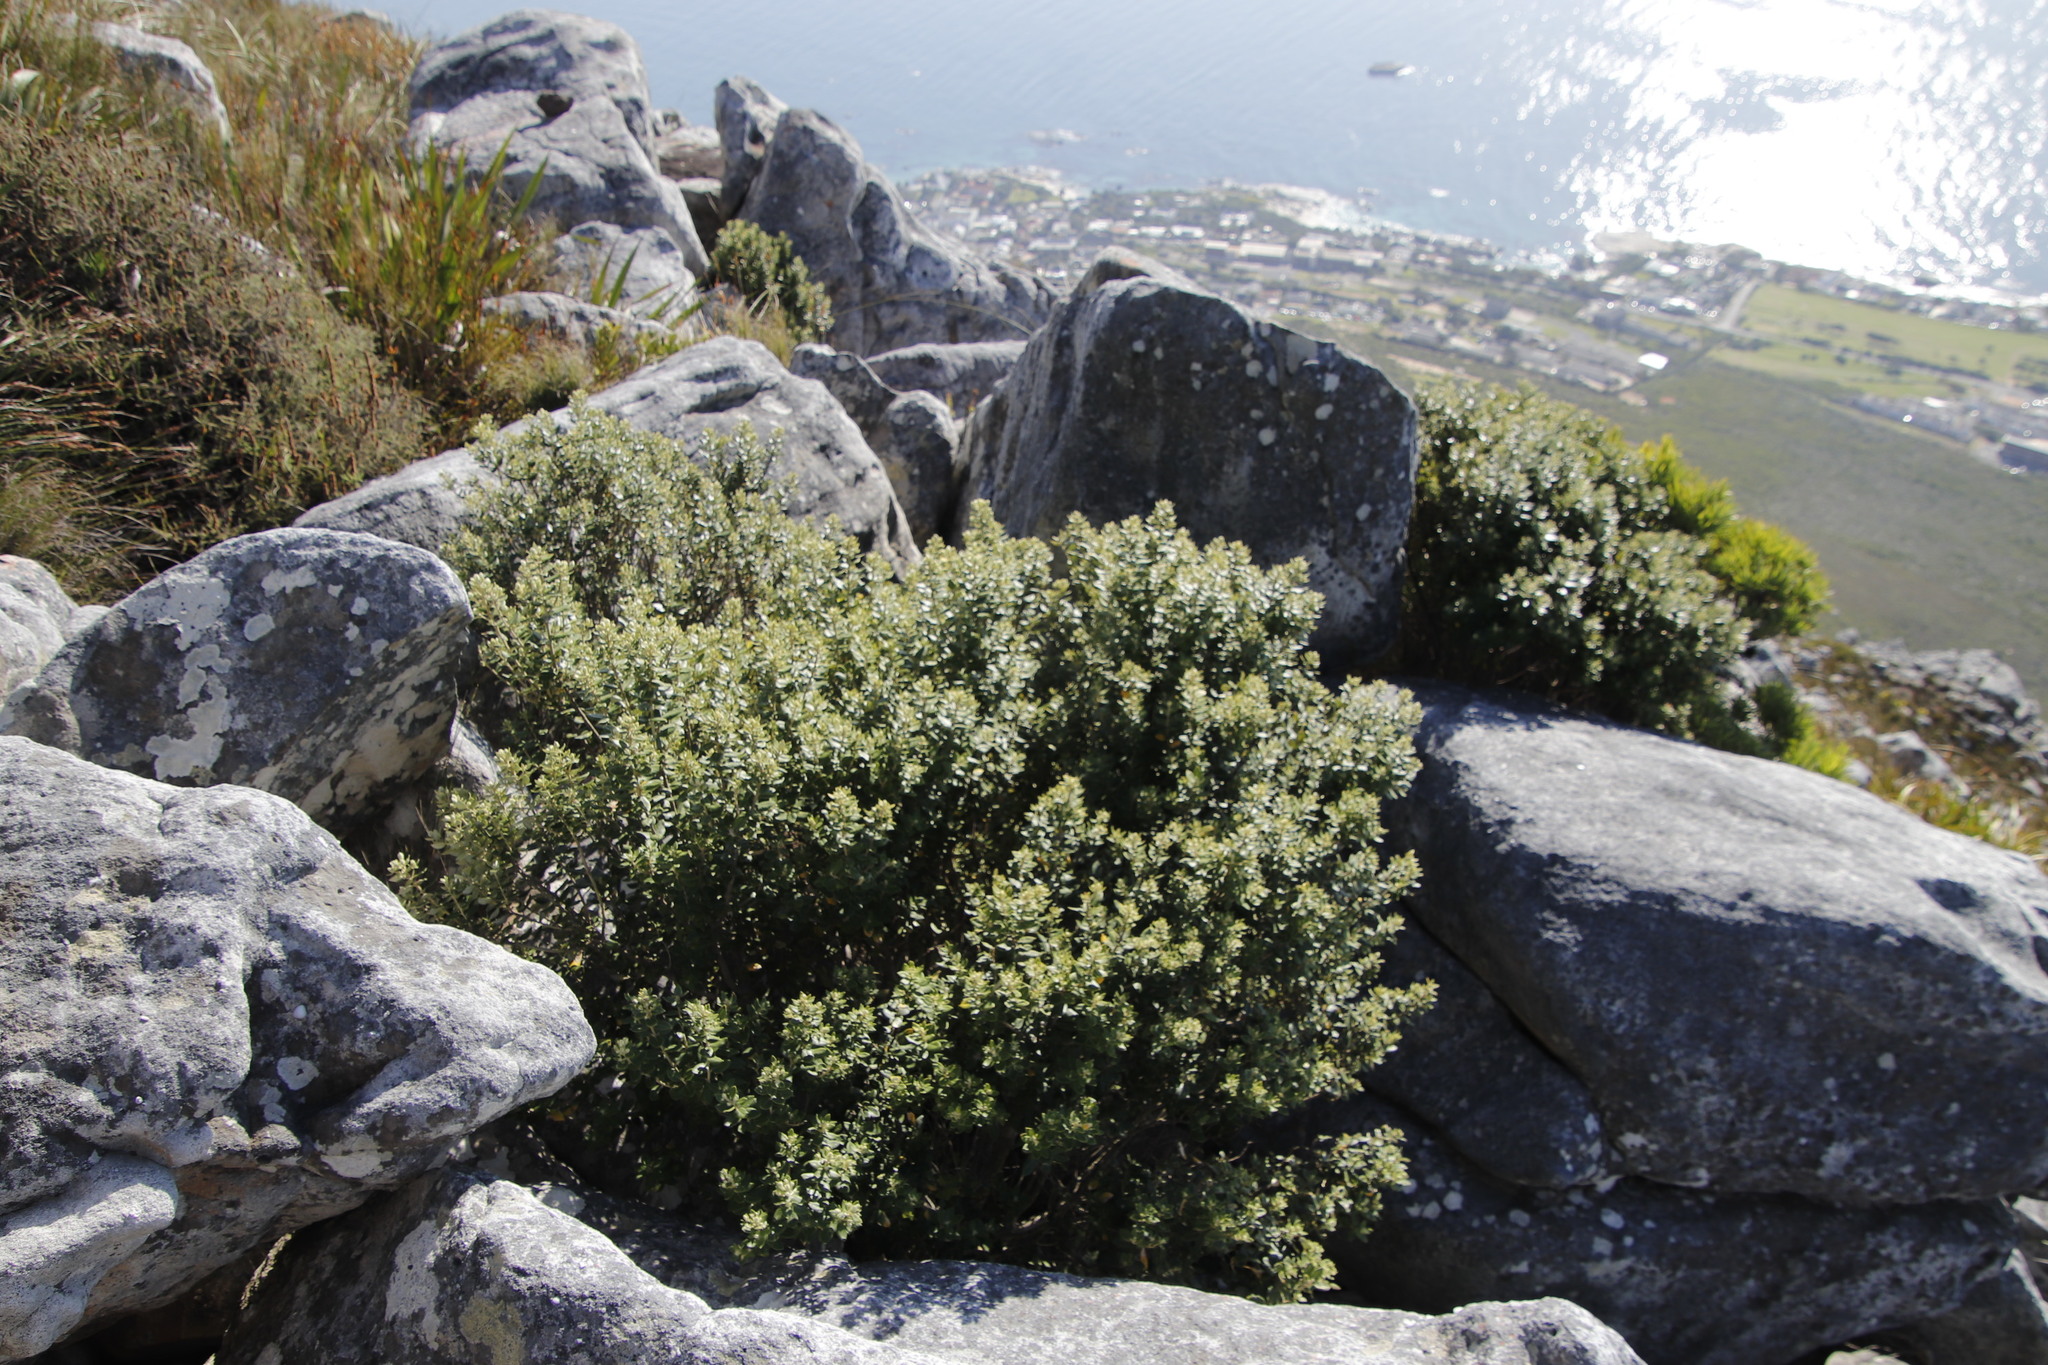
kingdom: Plantae
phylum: Tracheophyta
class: Magnoliopsida
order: Rosales
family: Rhamnaceae
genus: Phylica
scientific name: Phylica buxifolia
